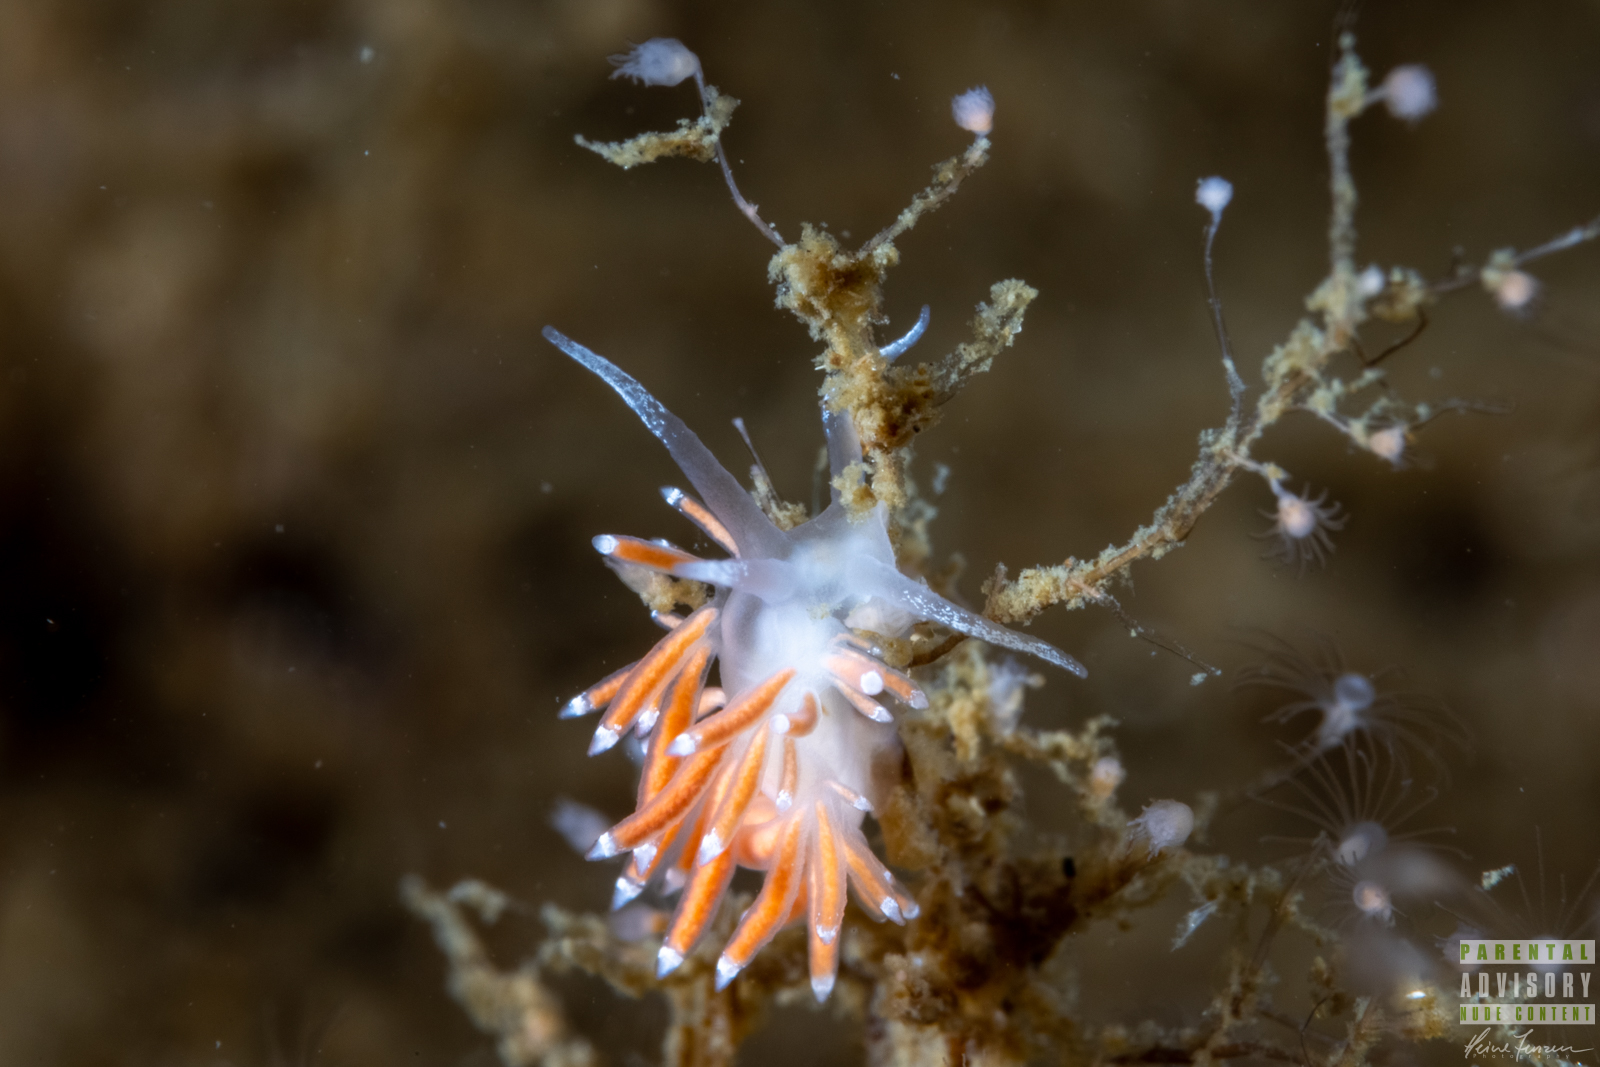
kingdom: Animalia
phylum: Mollusca
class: Gastropoda
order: Nudibranchia
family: Coryphellidae
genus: Coryphella
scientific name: Coryphella gracilis
